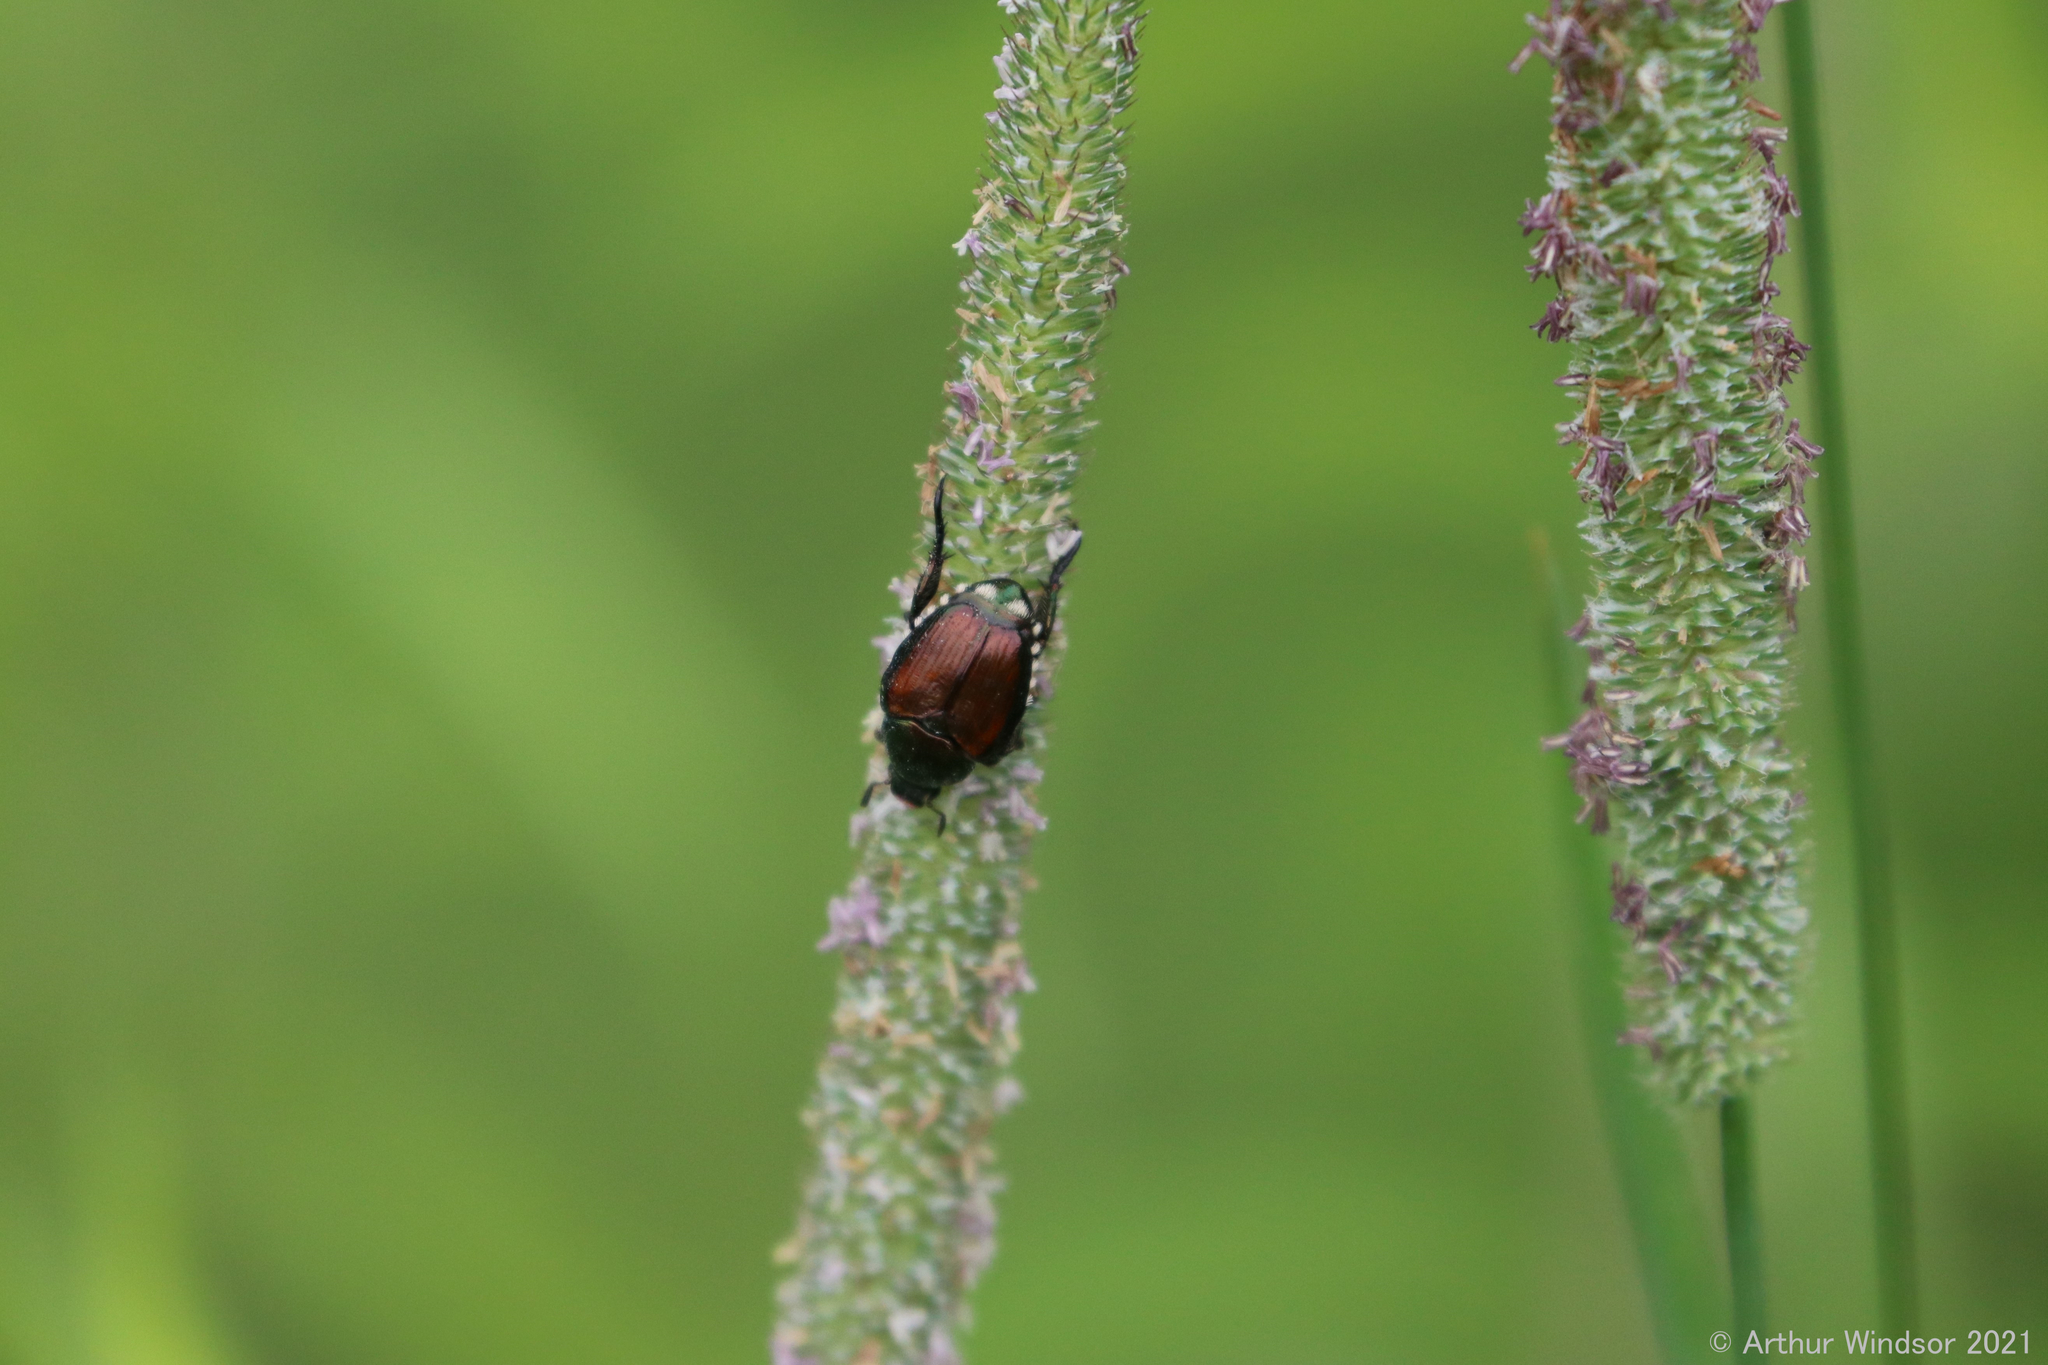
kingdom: Animalia
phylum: Arthropoda
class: Insecta
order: Coleoptera
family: Scarabaeidae
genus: Popillia
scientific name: Popillia japonica
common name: Japanese beetle
